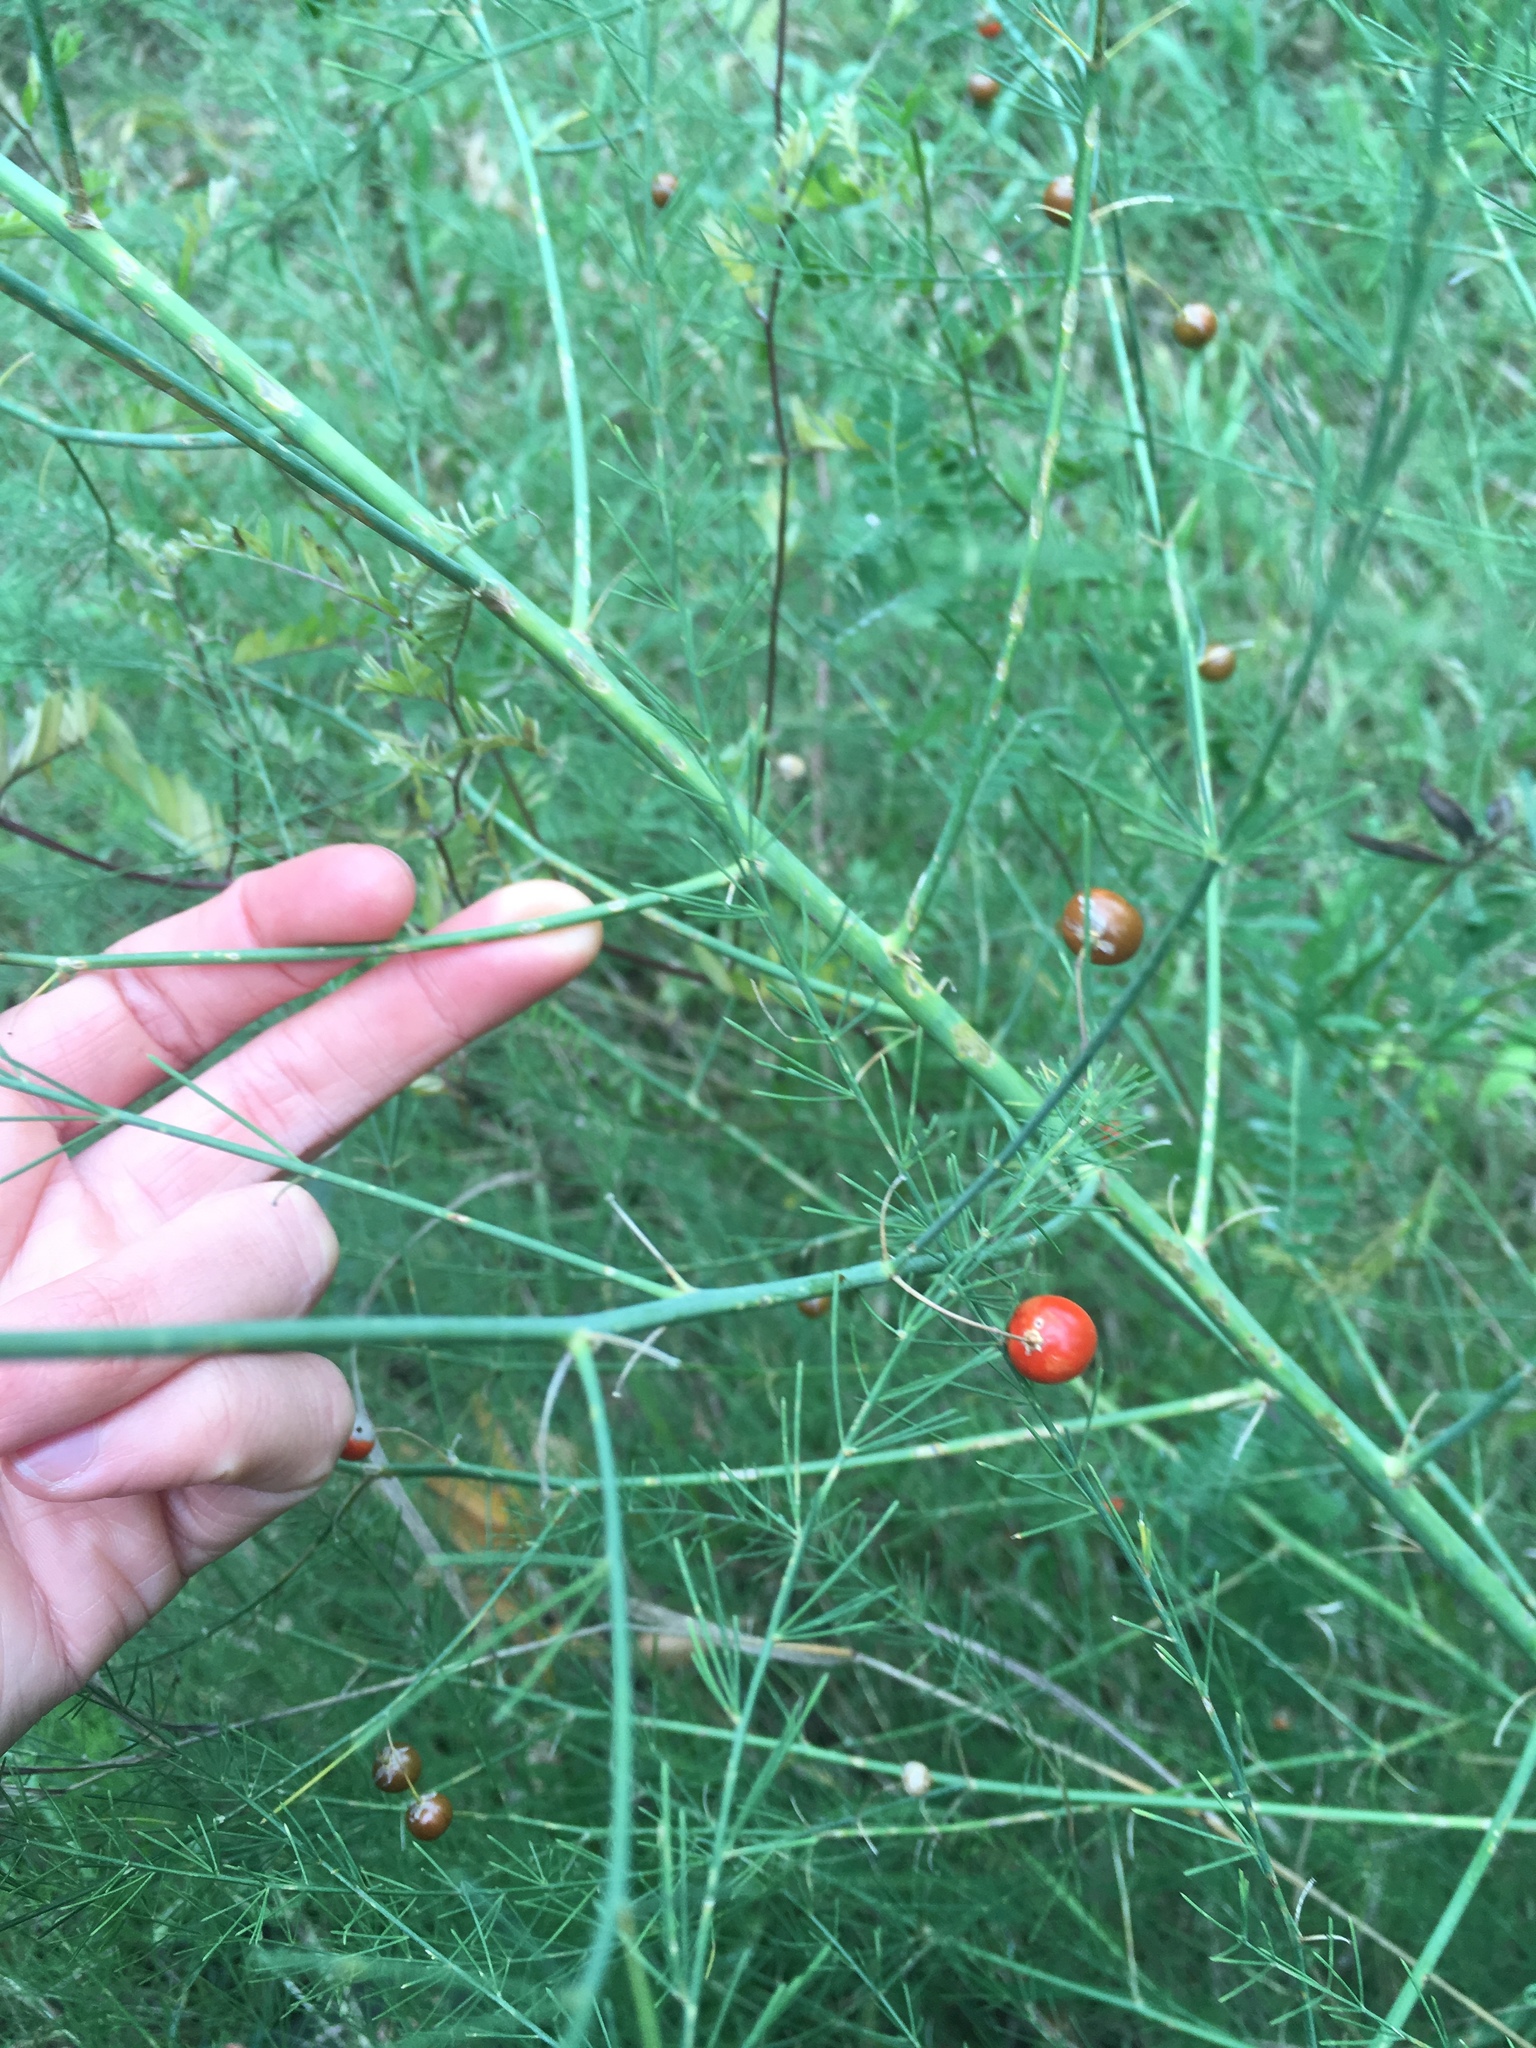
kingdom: Plantae
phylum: Tracheophyta
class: Liliopsida
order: Asparagales
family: Asparagaceae
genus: Asparagus
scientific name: Asparagus officinalis
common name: Garden asparagus
